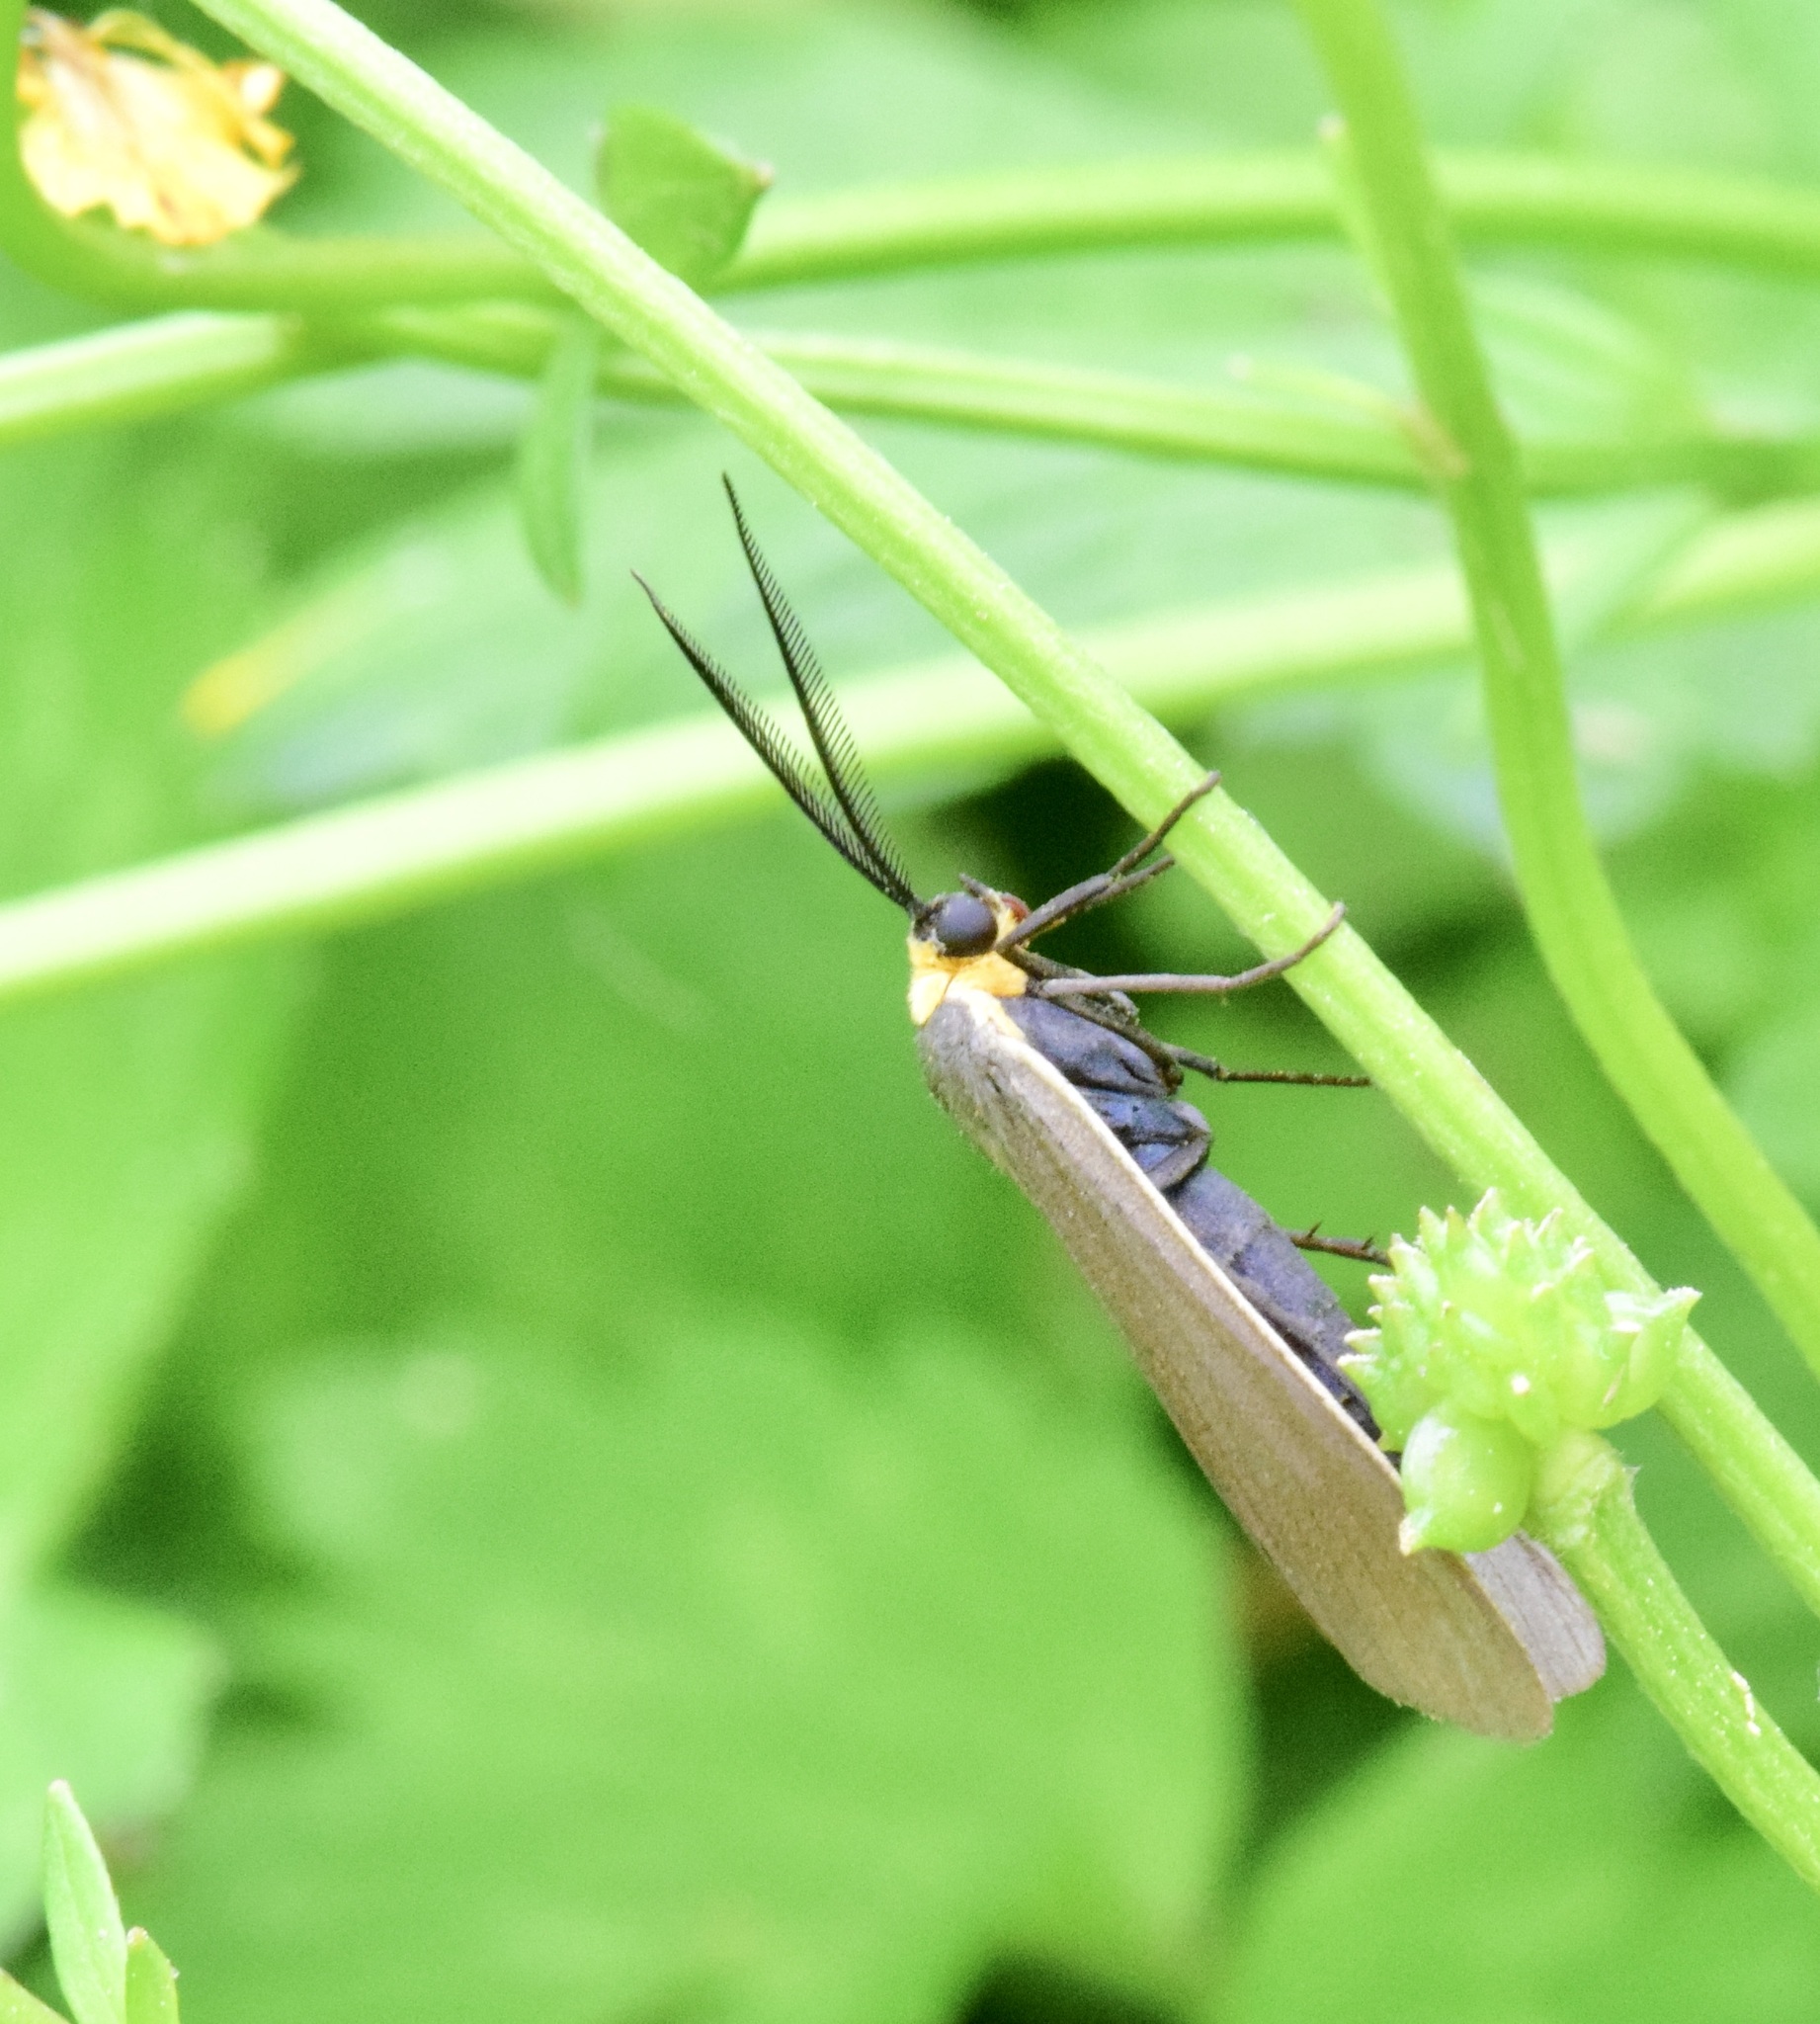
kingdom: Animalia
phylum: Arthropoda
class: Insecta
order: Lepidoptera
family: Erebidae
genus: Cisseps
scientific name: Cisseps fulvicollis
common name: Yellow-collared scape moth
